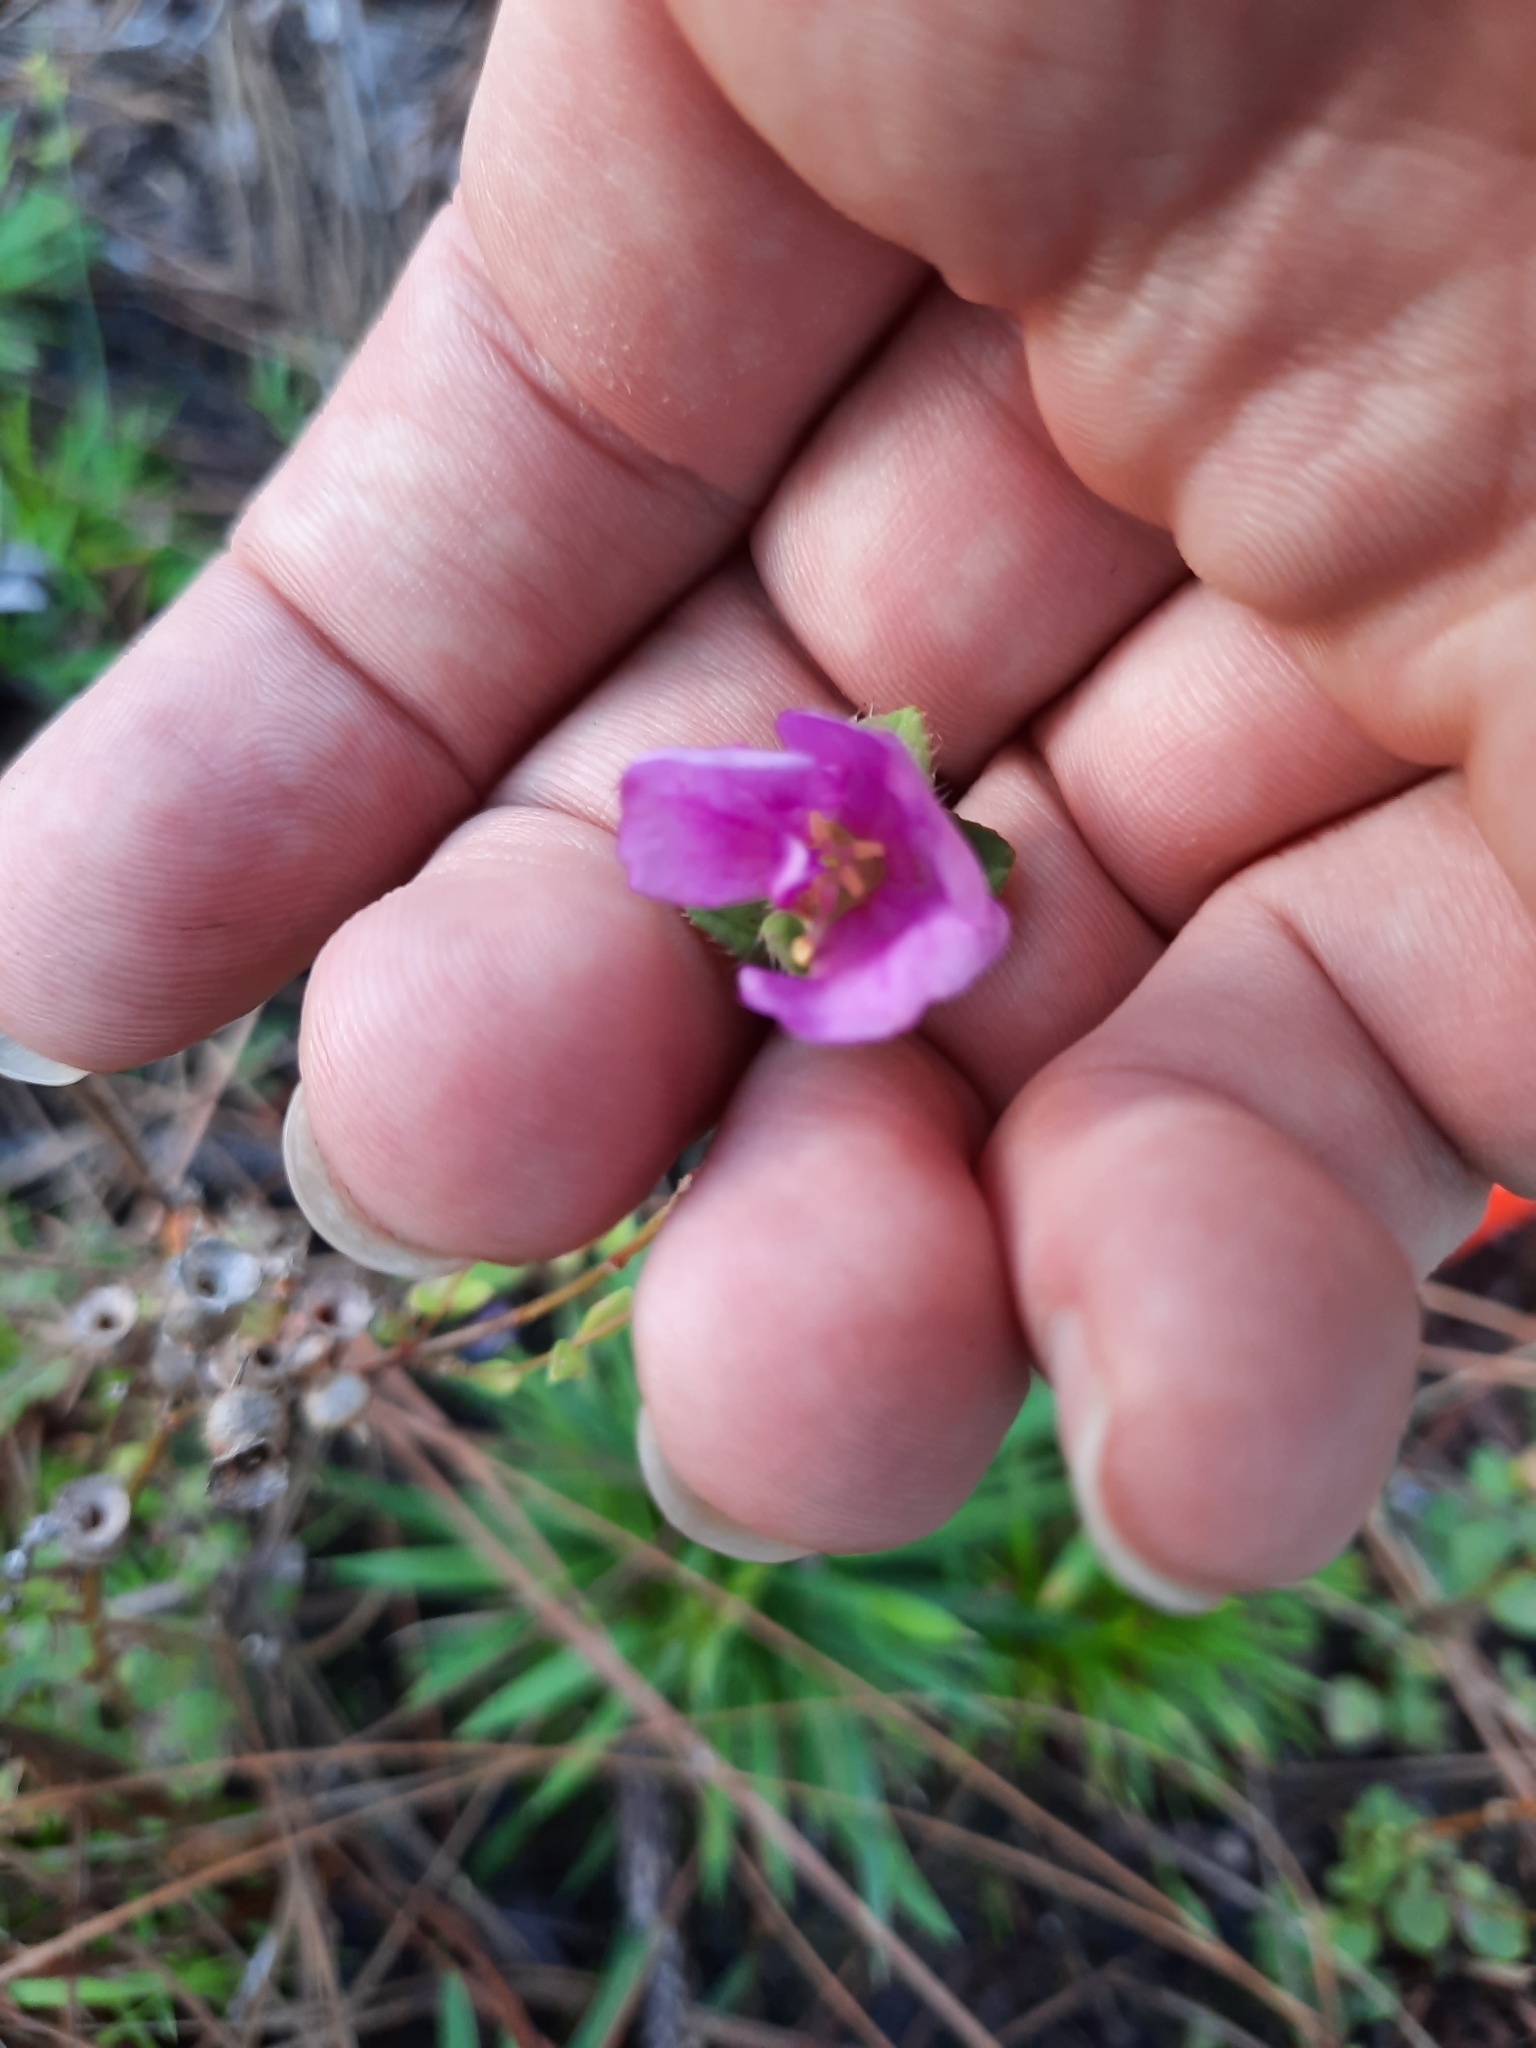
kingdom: Plantae
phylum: Tracheophyta
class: Magnoliopsida
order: Myrtales
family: Melastomataceae
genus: Rhexia
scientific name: Rhexia nuttallii
